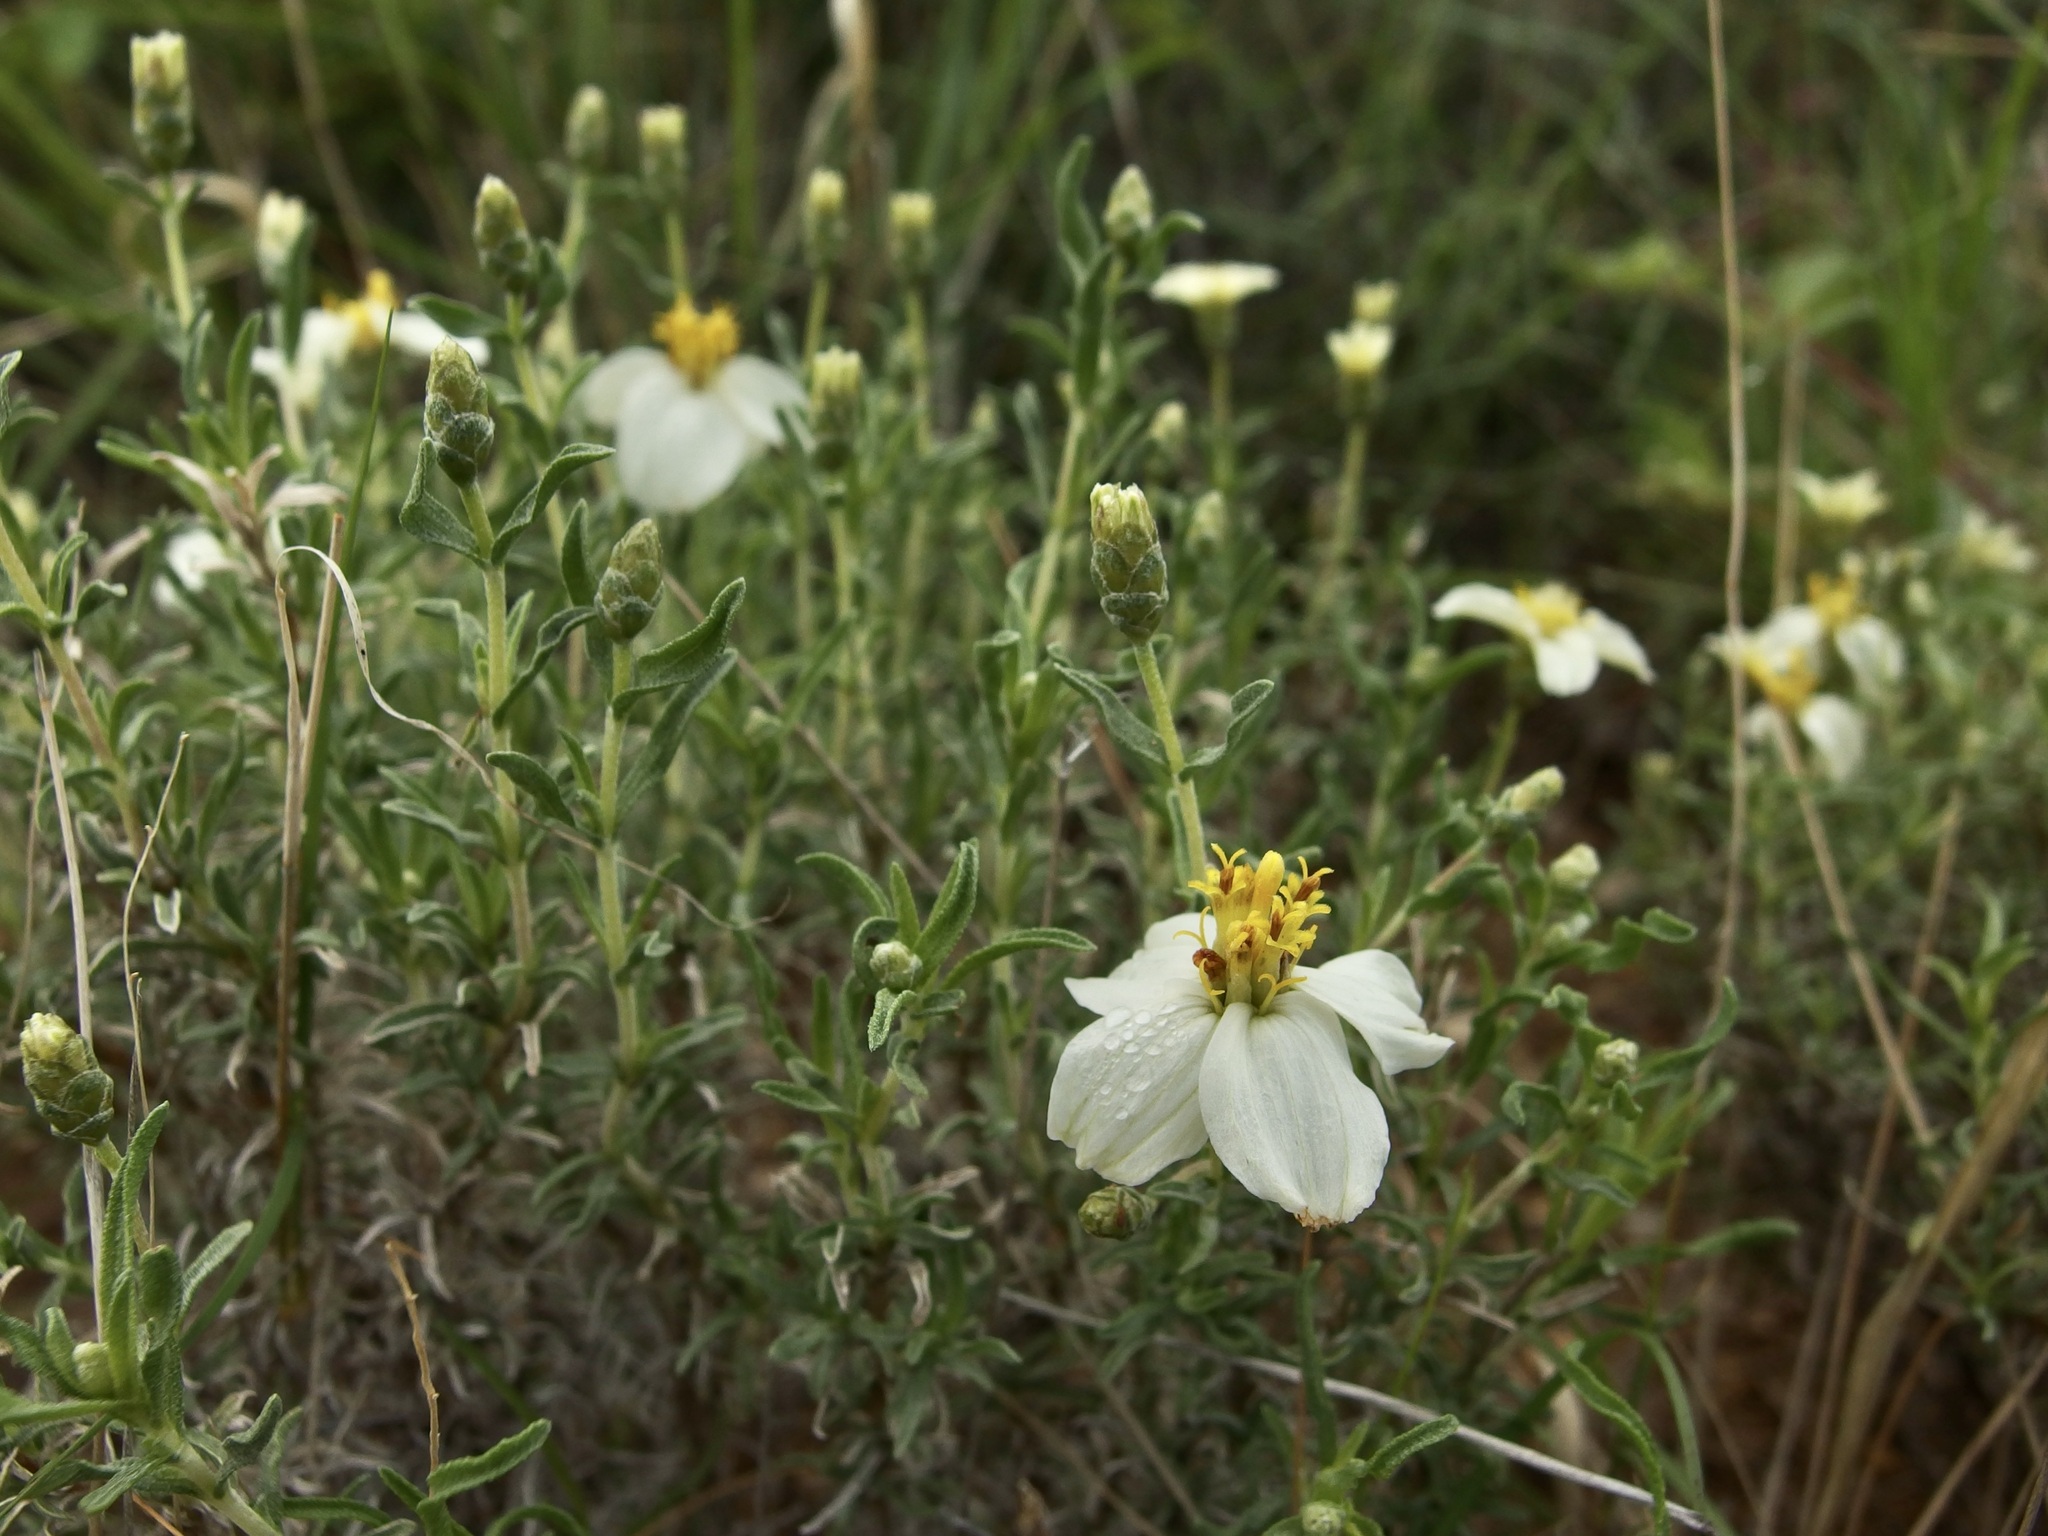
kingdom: Plantae
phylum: Tracheophyta
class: Magnoliopsida
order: Asterales
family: Asteraceae
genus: Zinnia
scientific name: Zinnia acerosa
